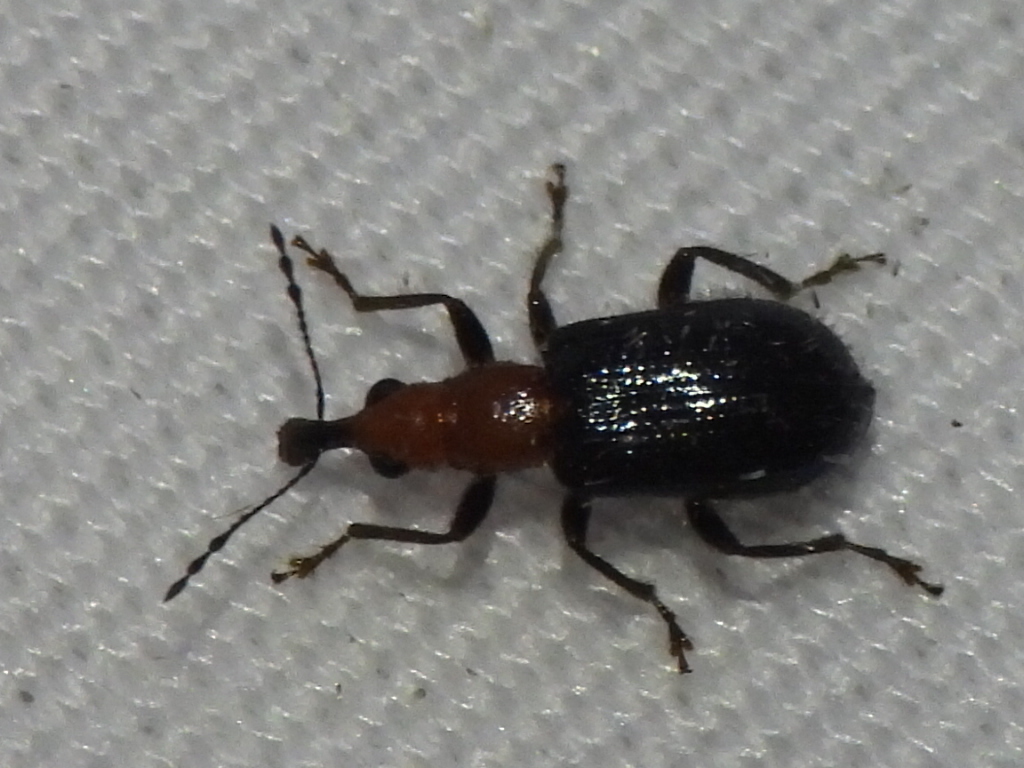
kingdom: Animalia
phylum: Arthropoda
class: Insecta
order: Coleoptera
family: Attelabidae
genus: Eugnamptus
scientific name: Eugnamptus angustatus
